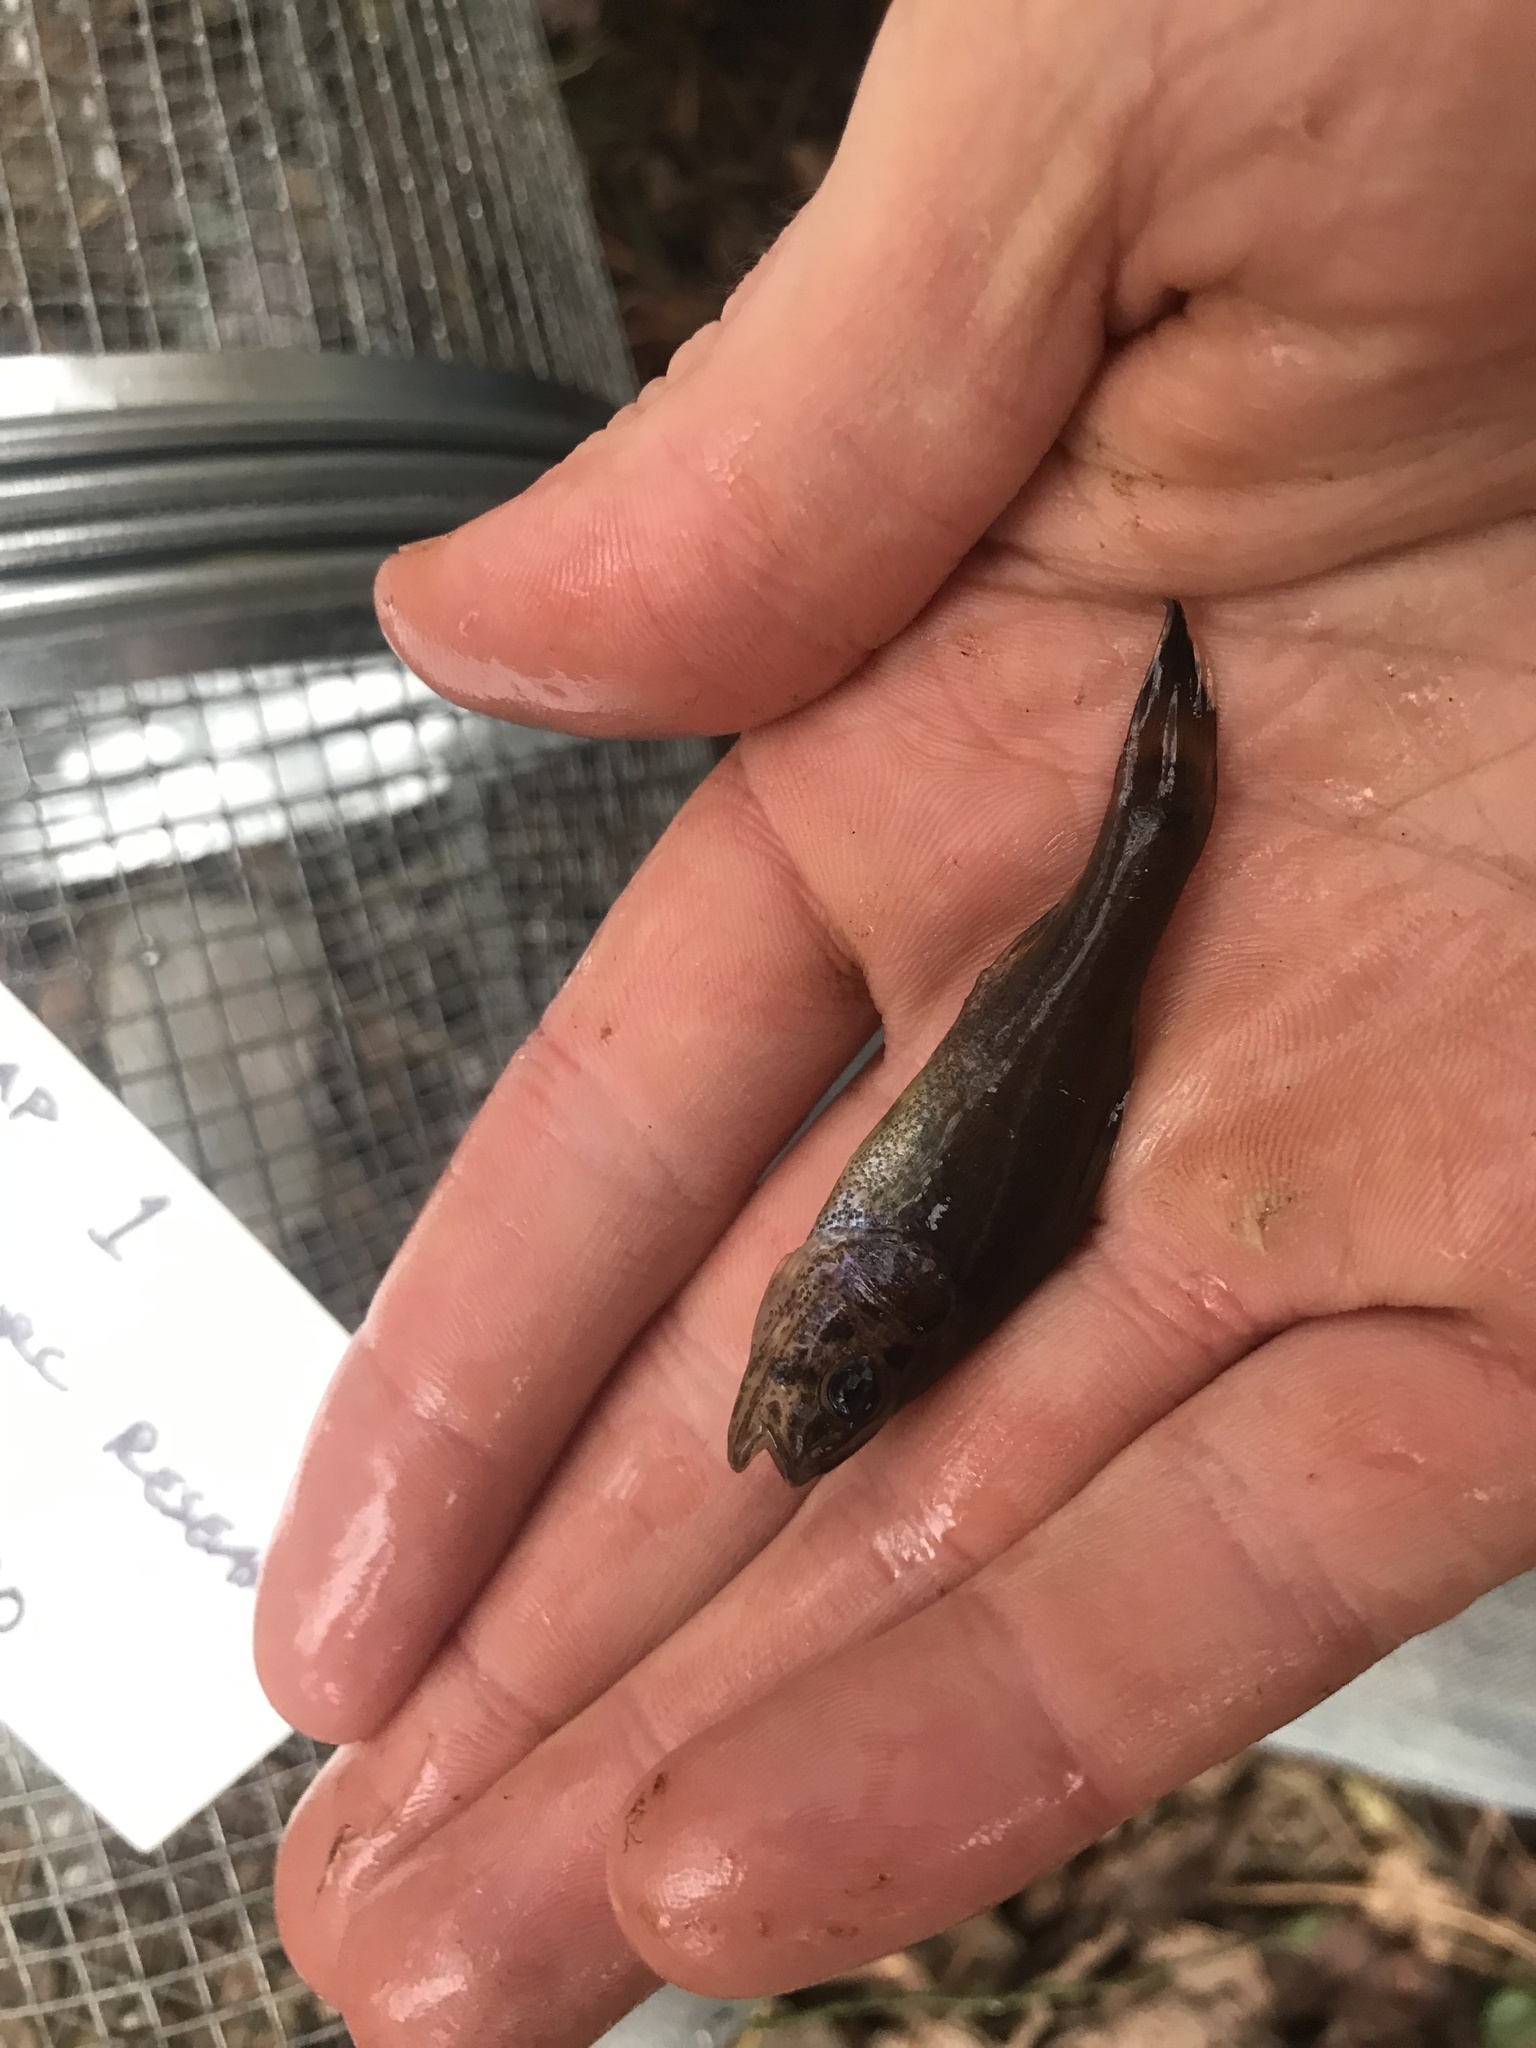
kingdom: Animalia
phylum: Chordata
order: Percopsiformes
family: Aphredoderidae
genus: Aphredoderus
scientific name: Aphredoderus
